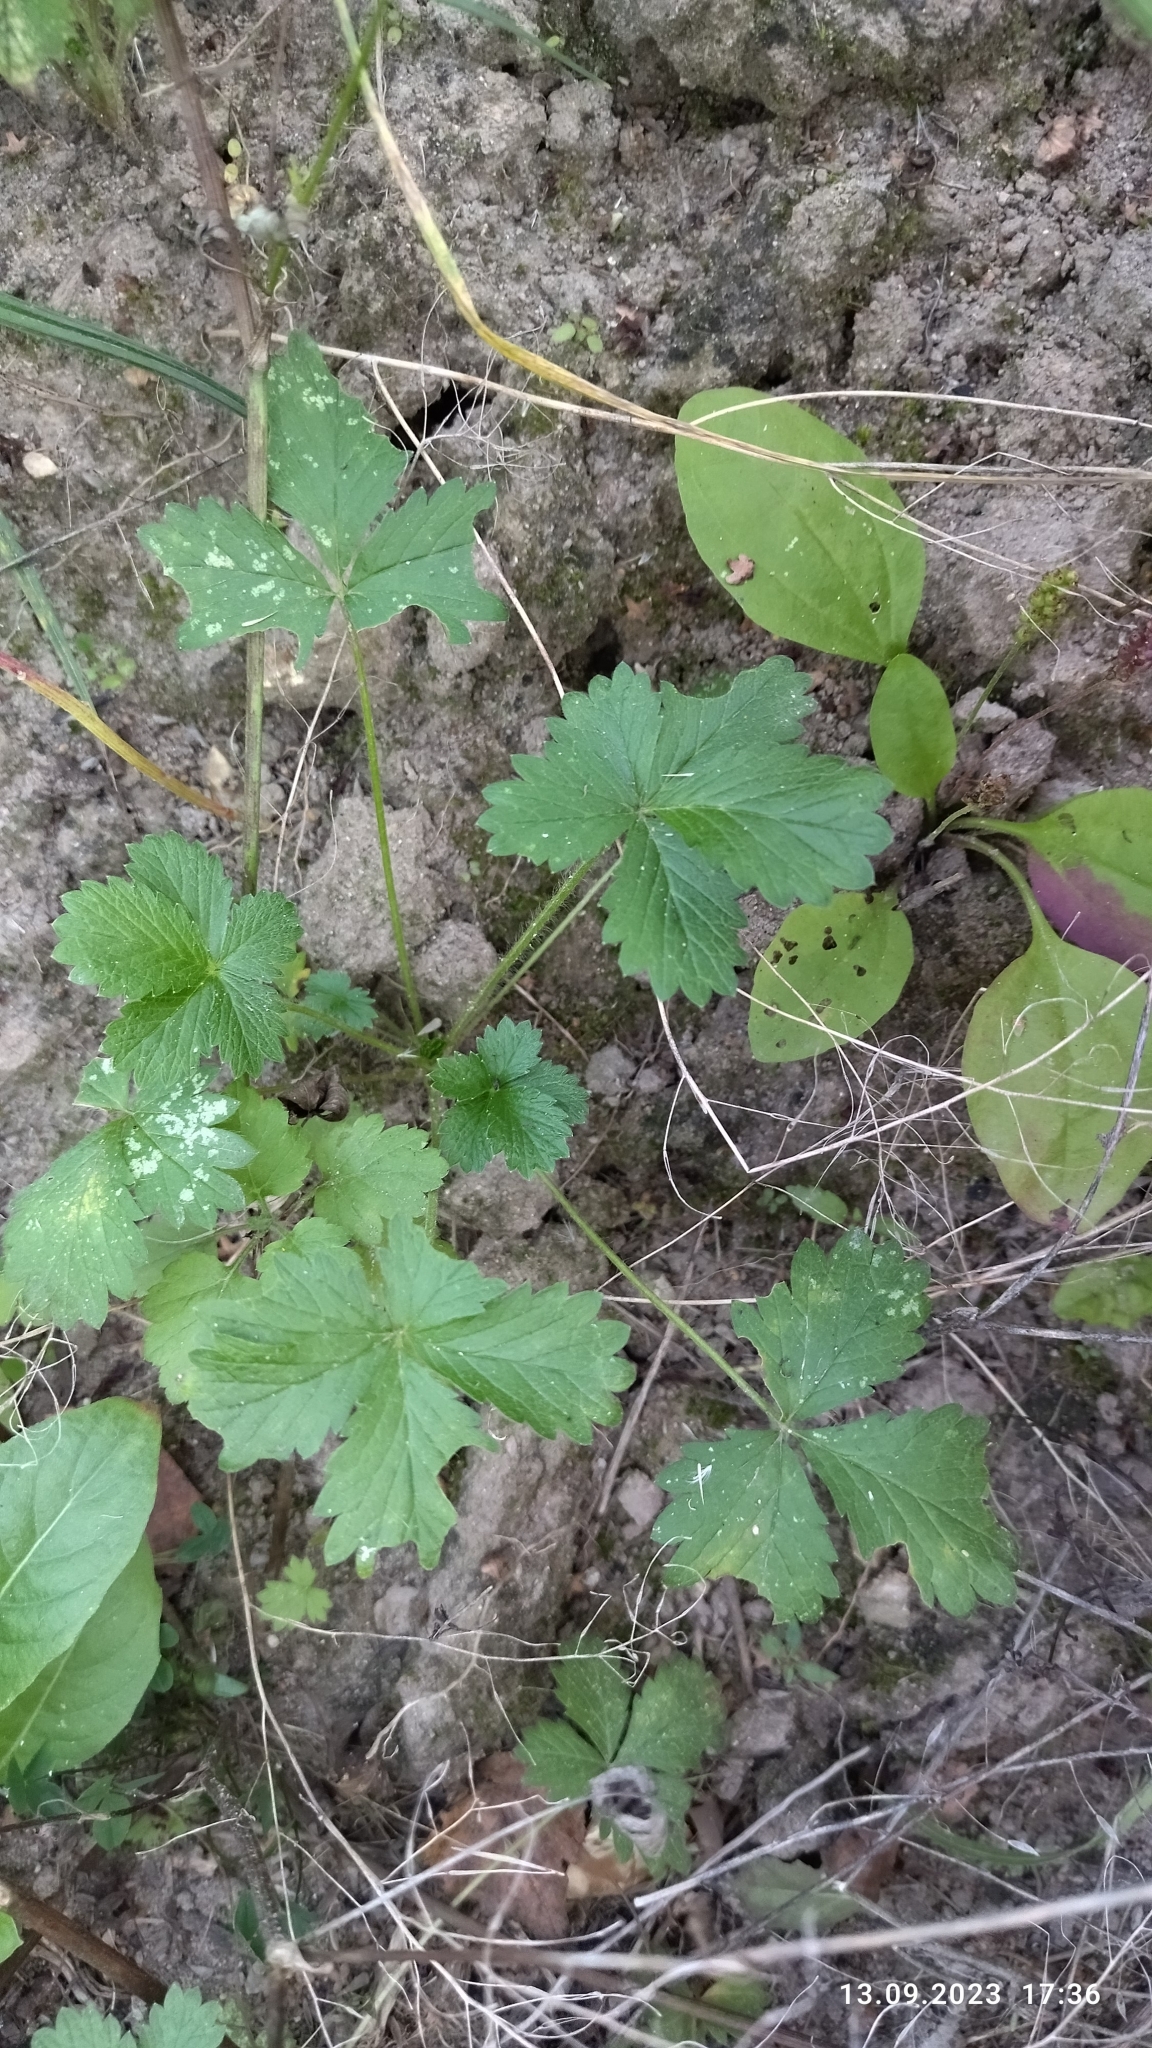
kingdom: Plantae
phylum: Tracheophyta
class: Magnoliopsida
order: Rosales
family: Rosaceae
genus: Potentilla
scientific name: Potentilla intermedia
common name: Downy cinquefoil
